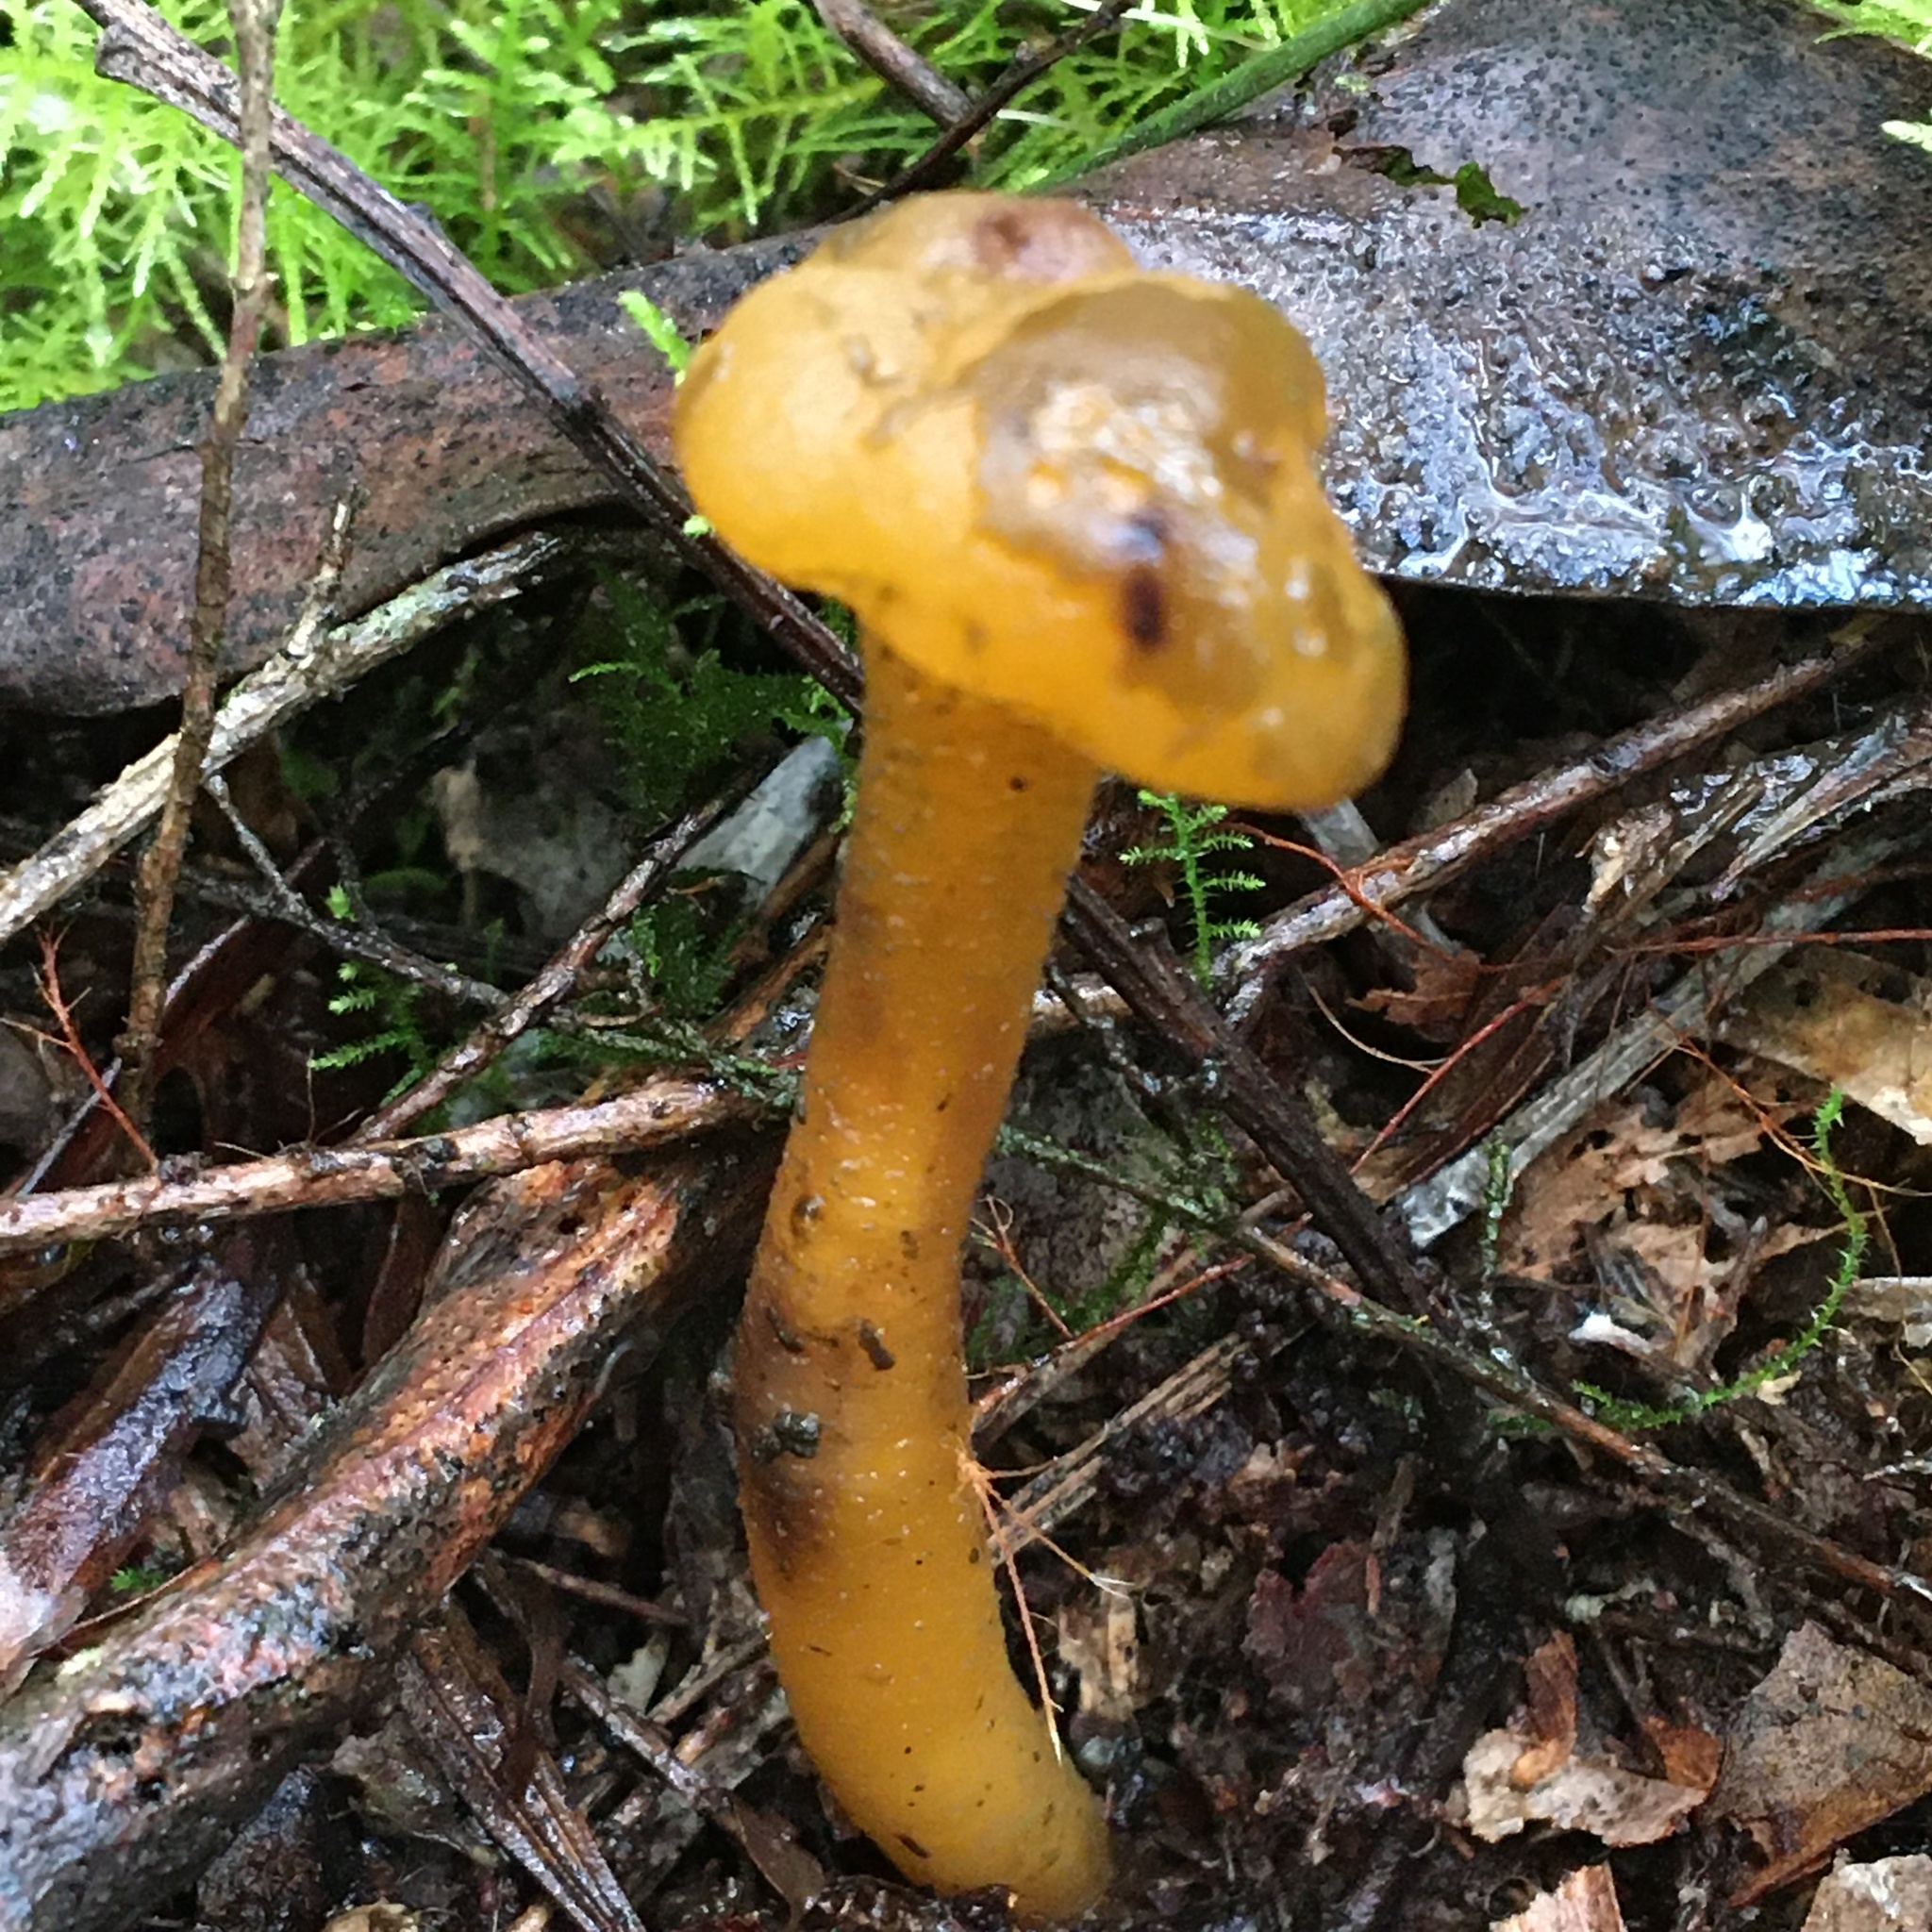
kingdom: Fungi
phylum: Ascomycota
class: Leotiomycetes
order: Leotiales
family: Leotiaceae
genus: Leotia
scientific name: Leotia lubrica
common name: Jellybaby
